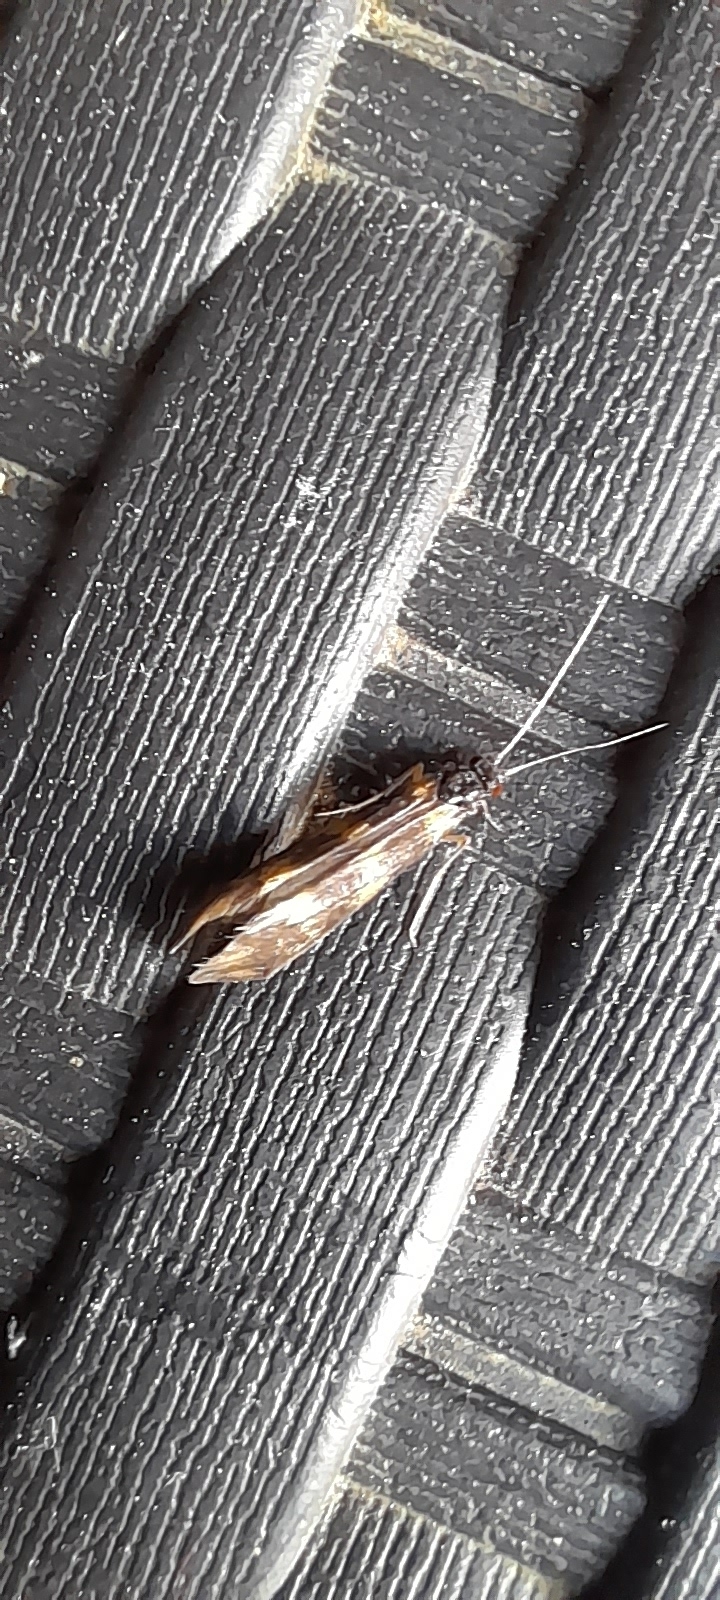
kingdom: Animalia
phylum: Arthropoda
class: Insecta
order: Trichoptera
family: Leptoceridae
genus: Mystacides
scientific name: Mystacides longicornis
